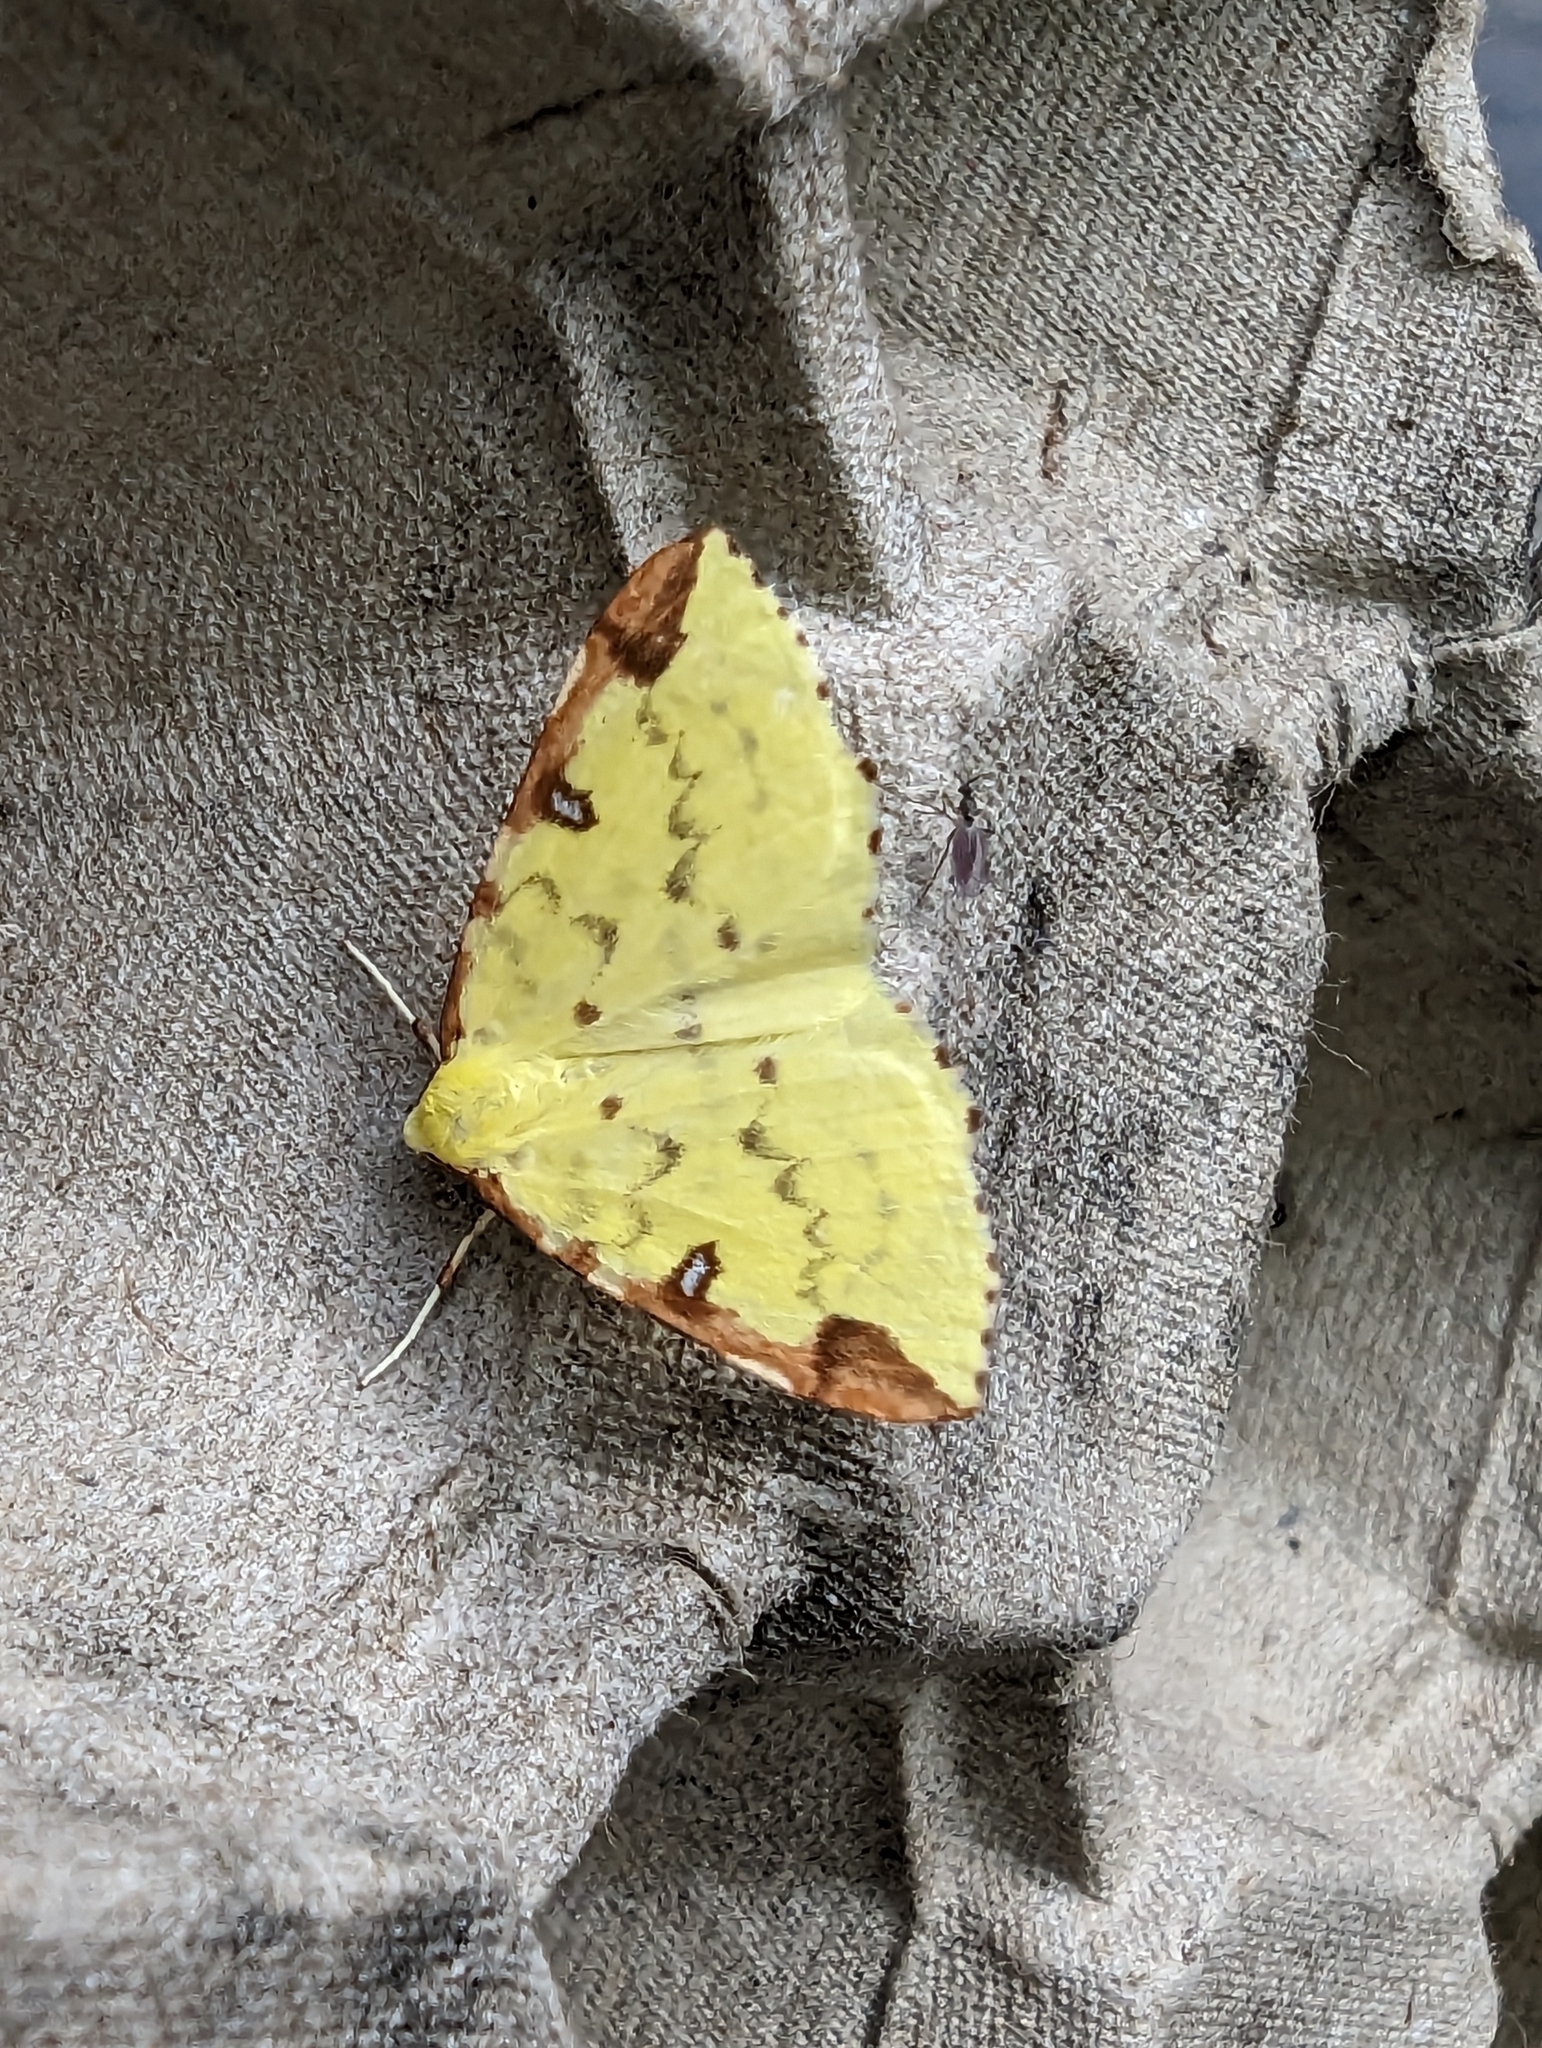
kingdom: Animalia
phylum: Arthropoda
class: Insecta
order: Lepidoptera
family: Geometridae
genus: Opisthograptis
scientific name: Opisthograptis luteolata
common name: Brimstone moth
